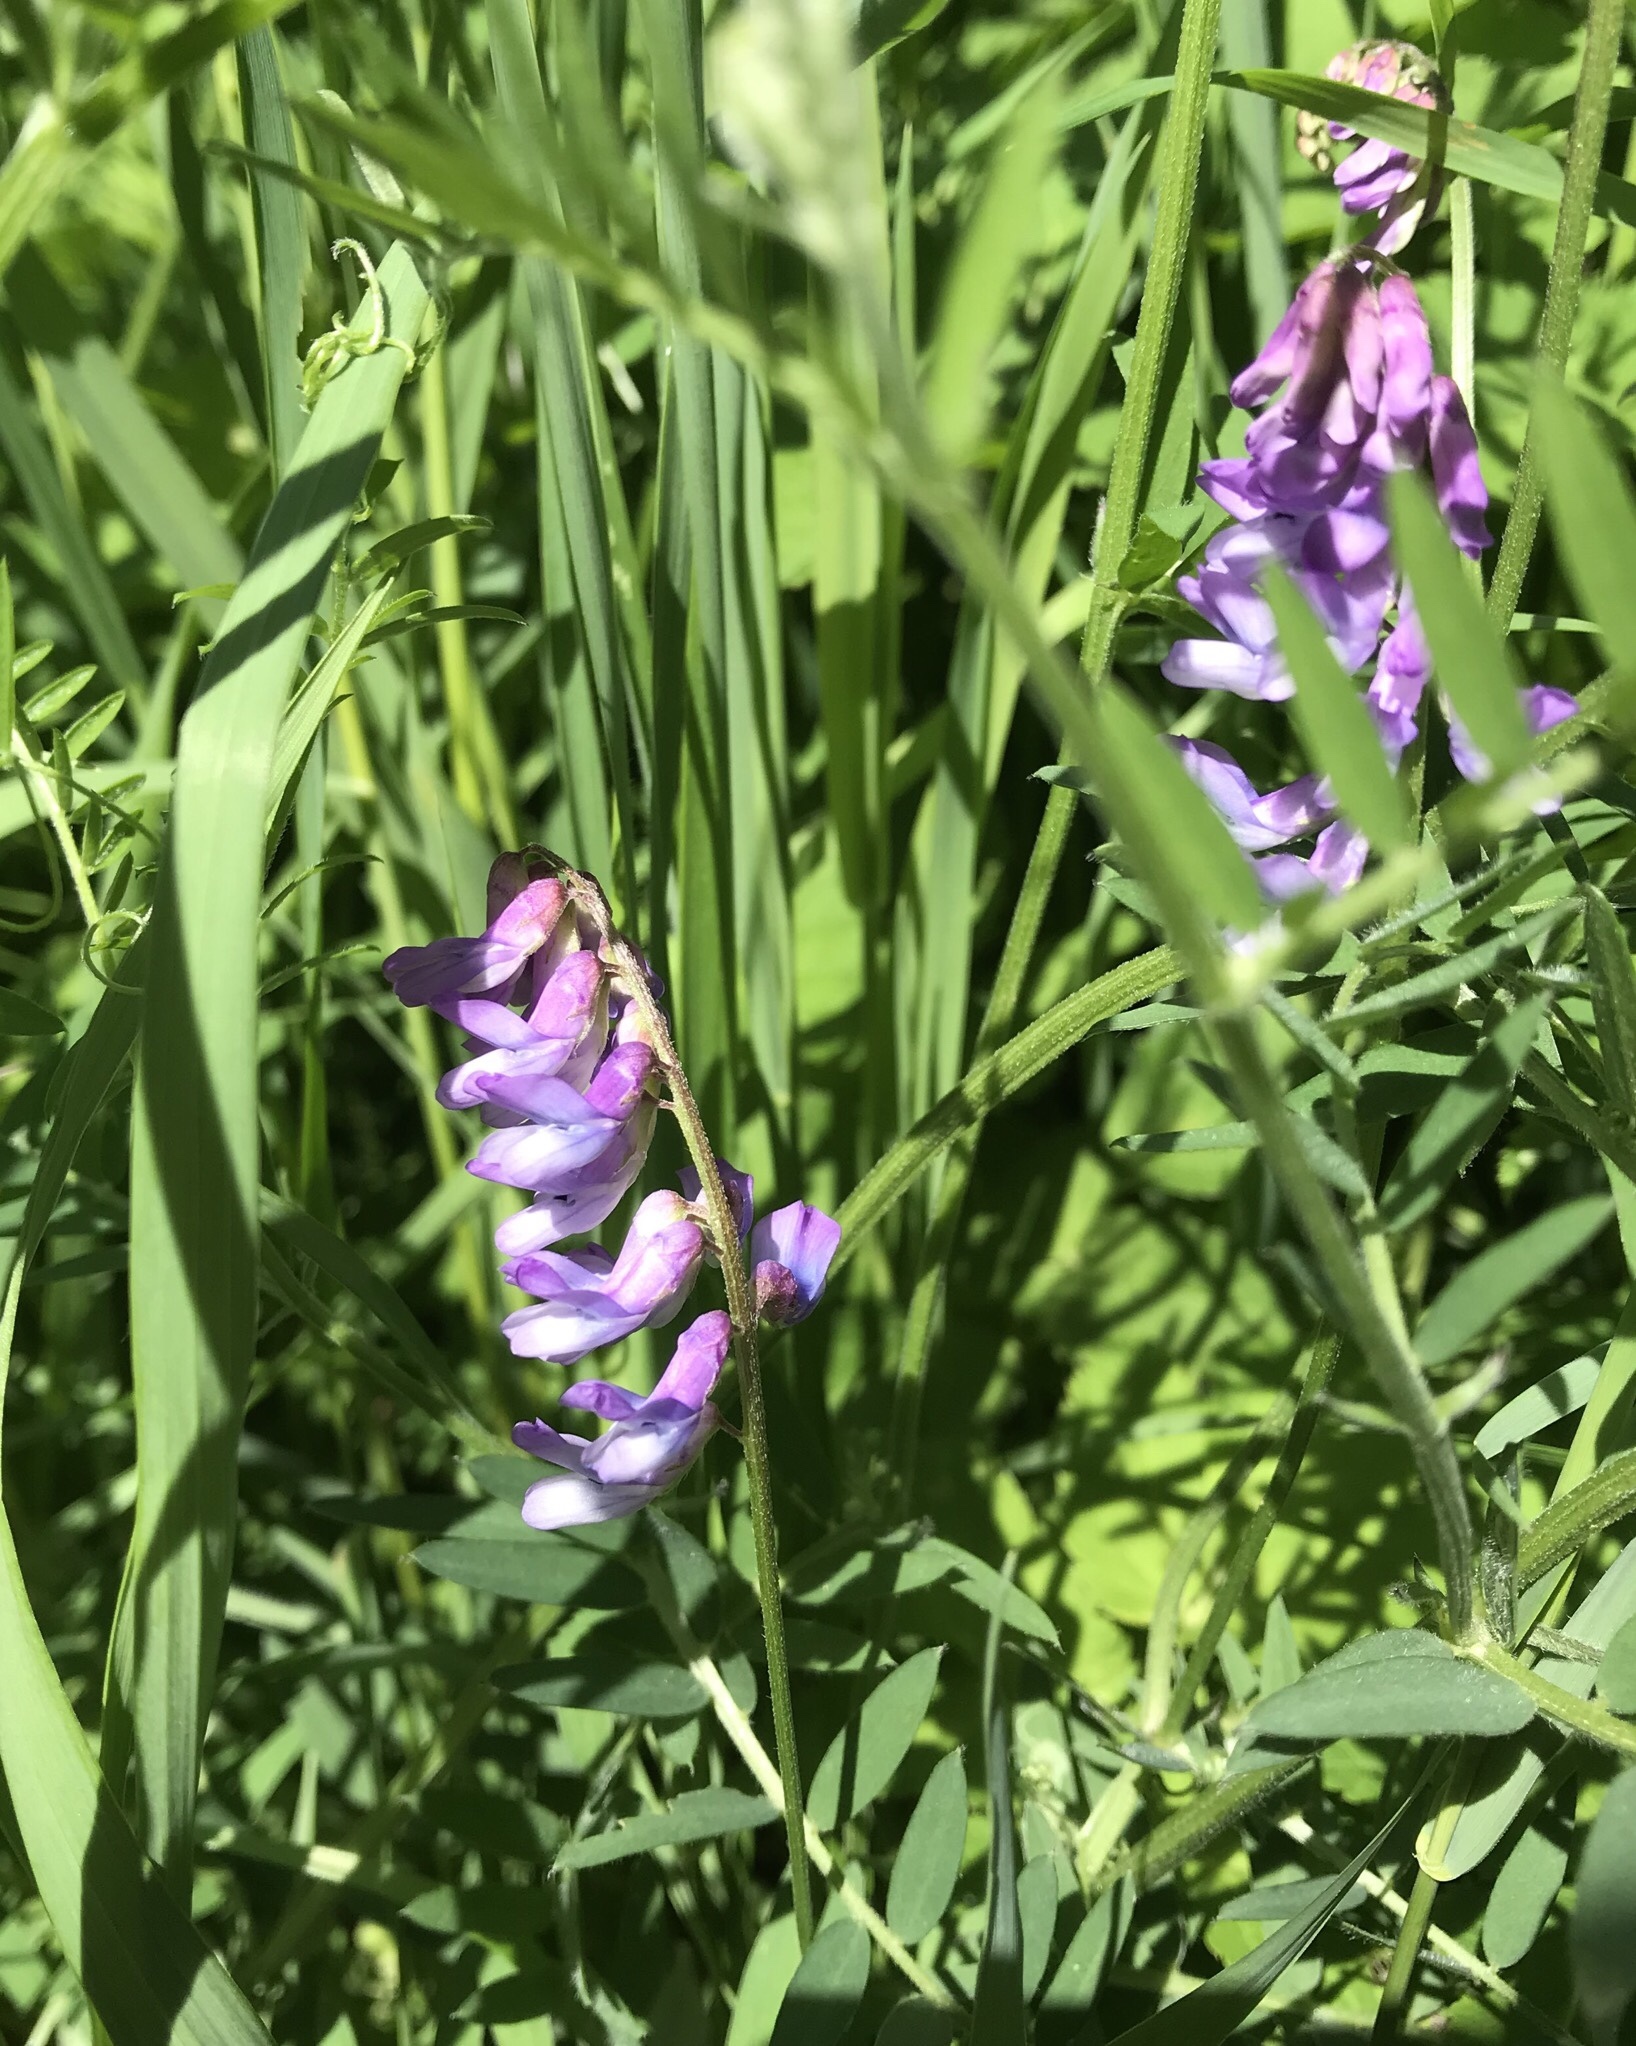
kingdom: Plantae
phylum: Tracheophyta
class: Magnoliopsida
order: Fabales
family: Fabaceae
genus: Vicia
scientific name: Vicia cracca
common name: Bird vetch
